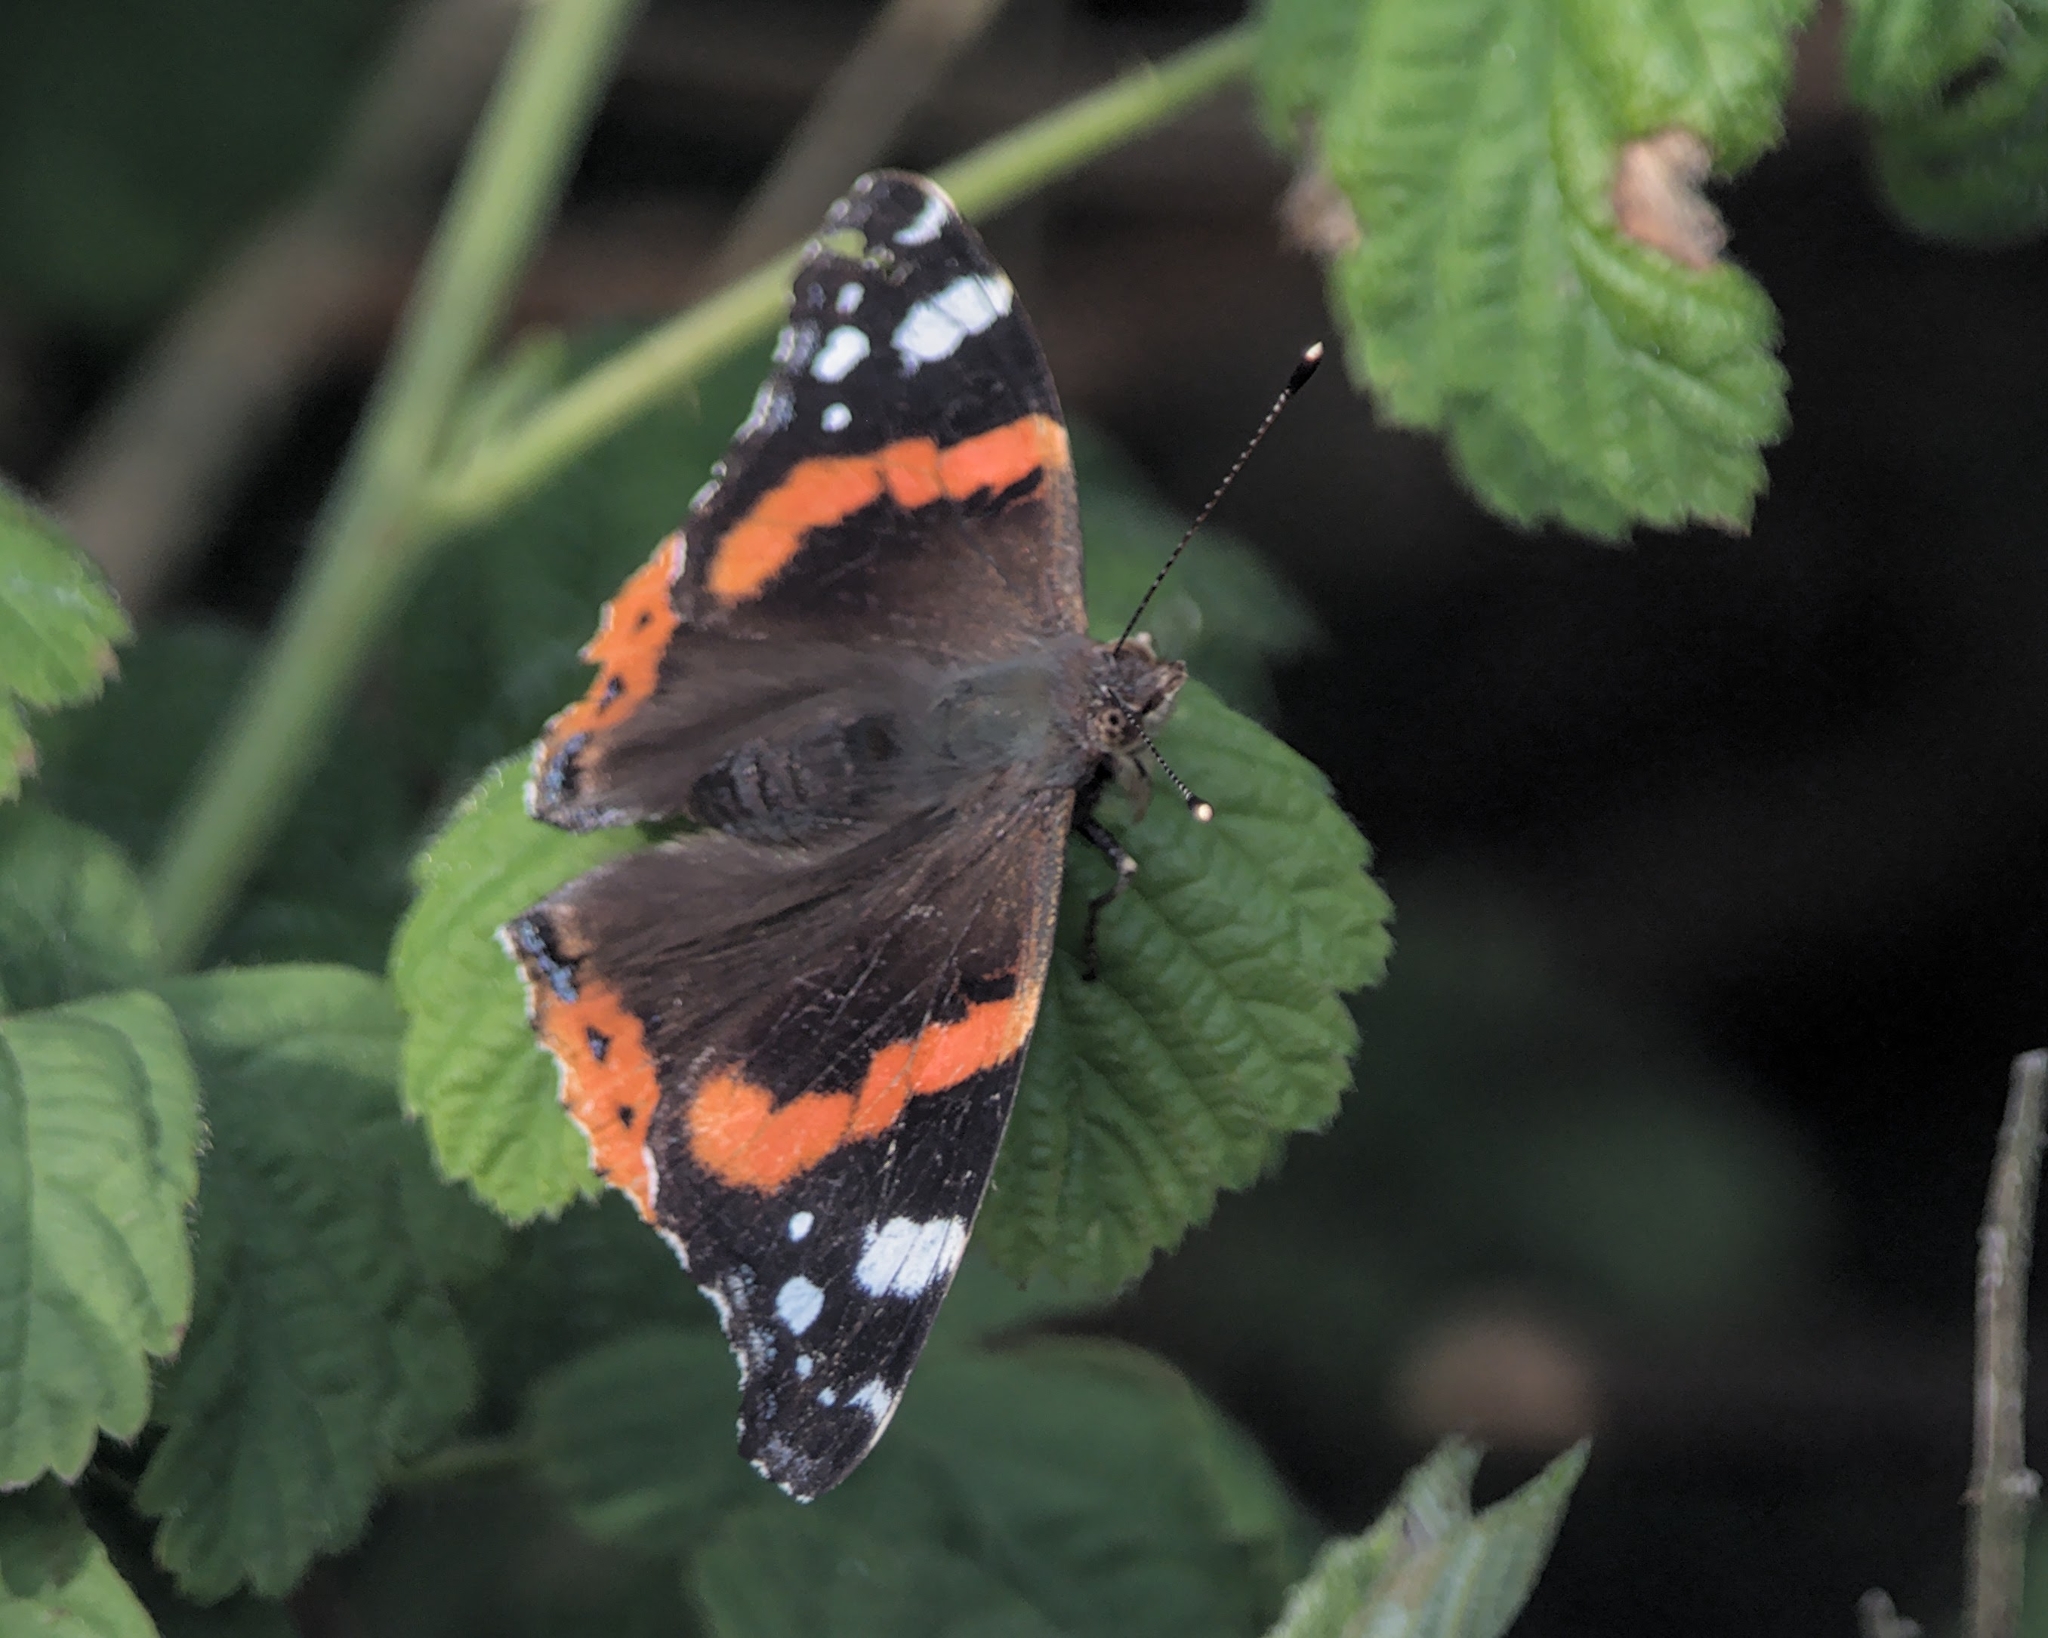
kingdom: Animalia
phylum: Arthropoda
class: Insecta
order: Lepidoptera
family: Nymphalidae
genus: Vanessa
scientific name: Vanessa atalanta
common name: Red admiral
